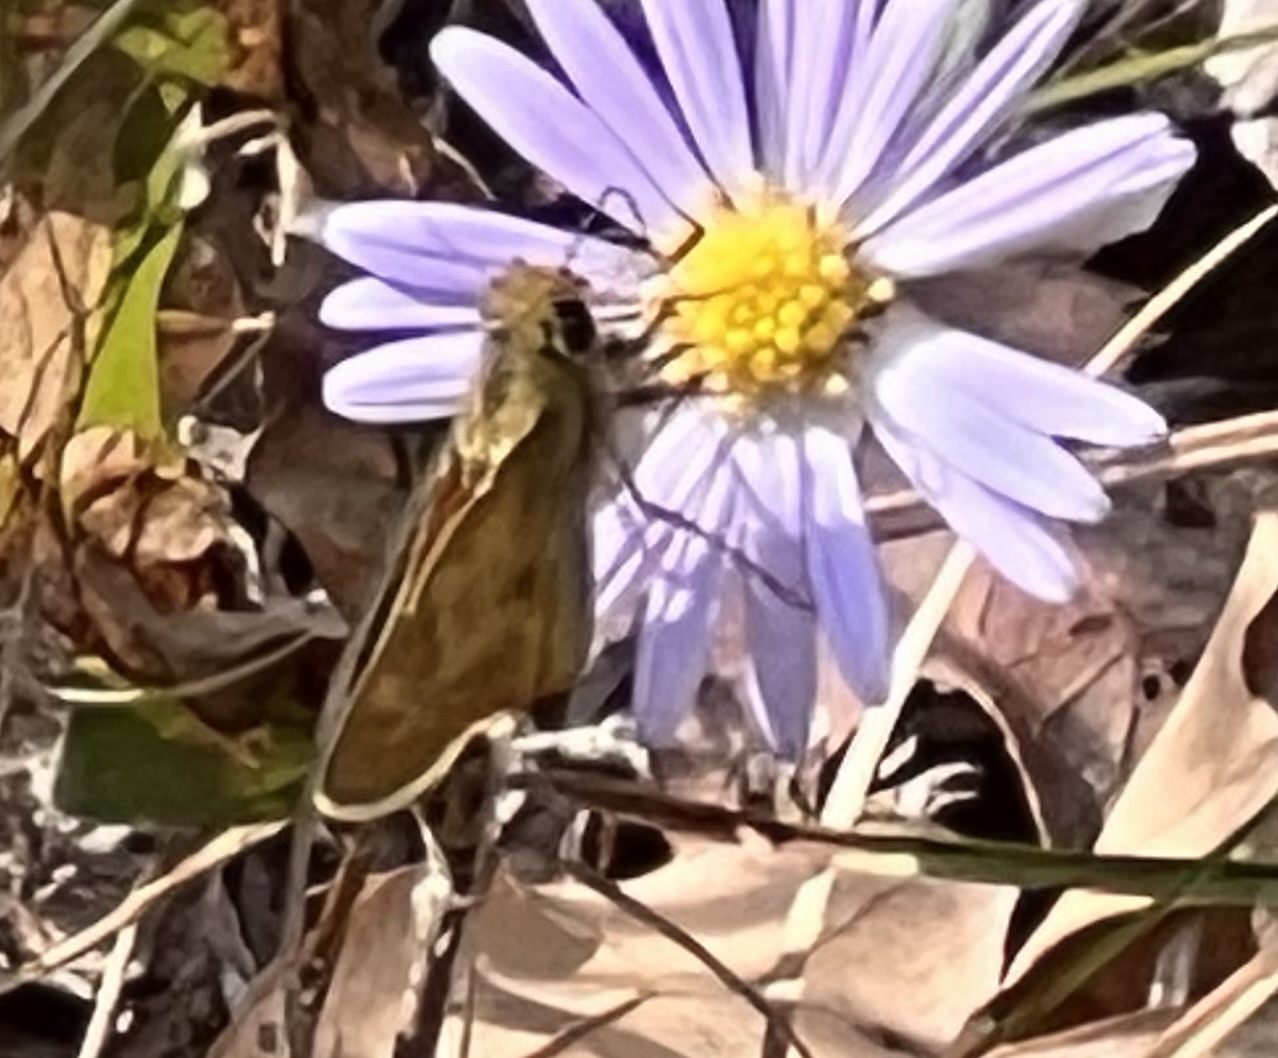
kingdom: Animalia
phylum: Arthropoda
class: Insecta
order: Lepidoptera
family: Hesperiidae
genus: Atalopedes
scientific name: Atalopedes
